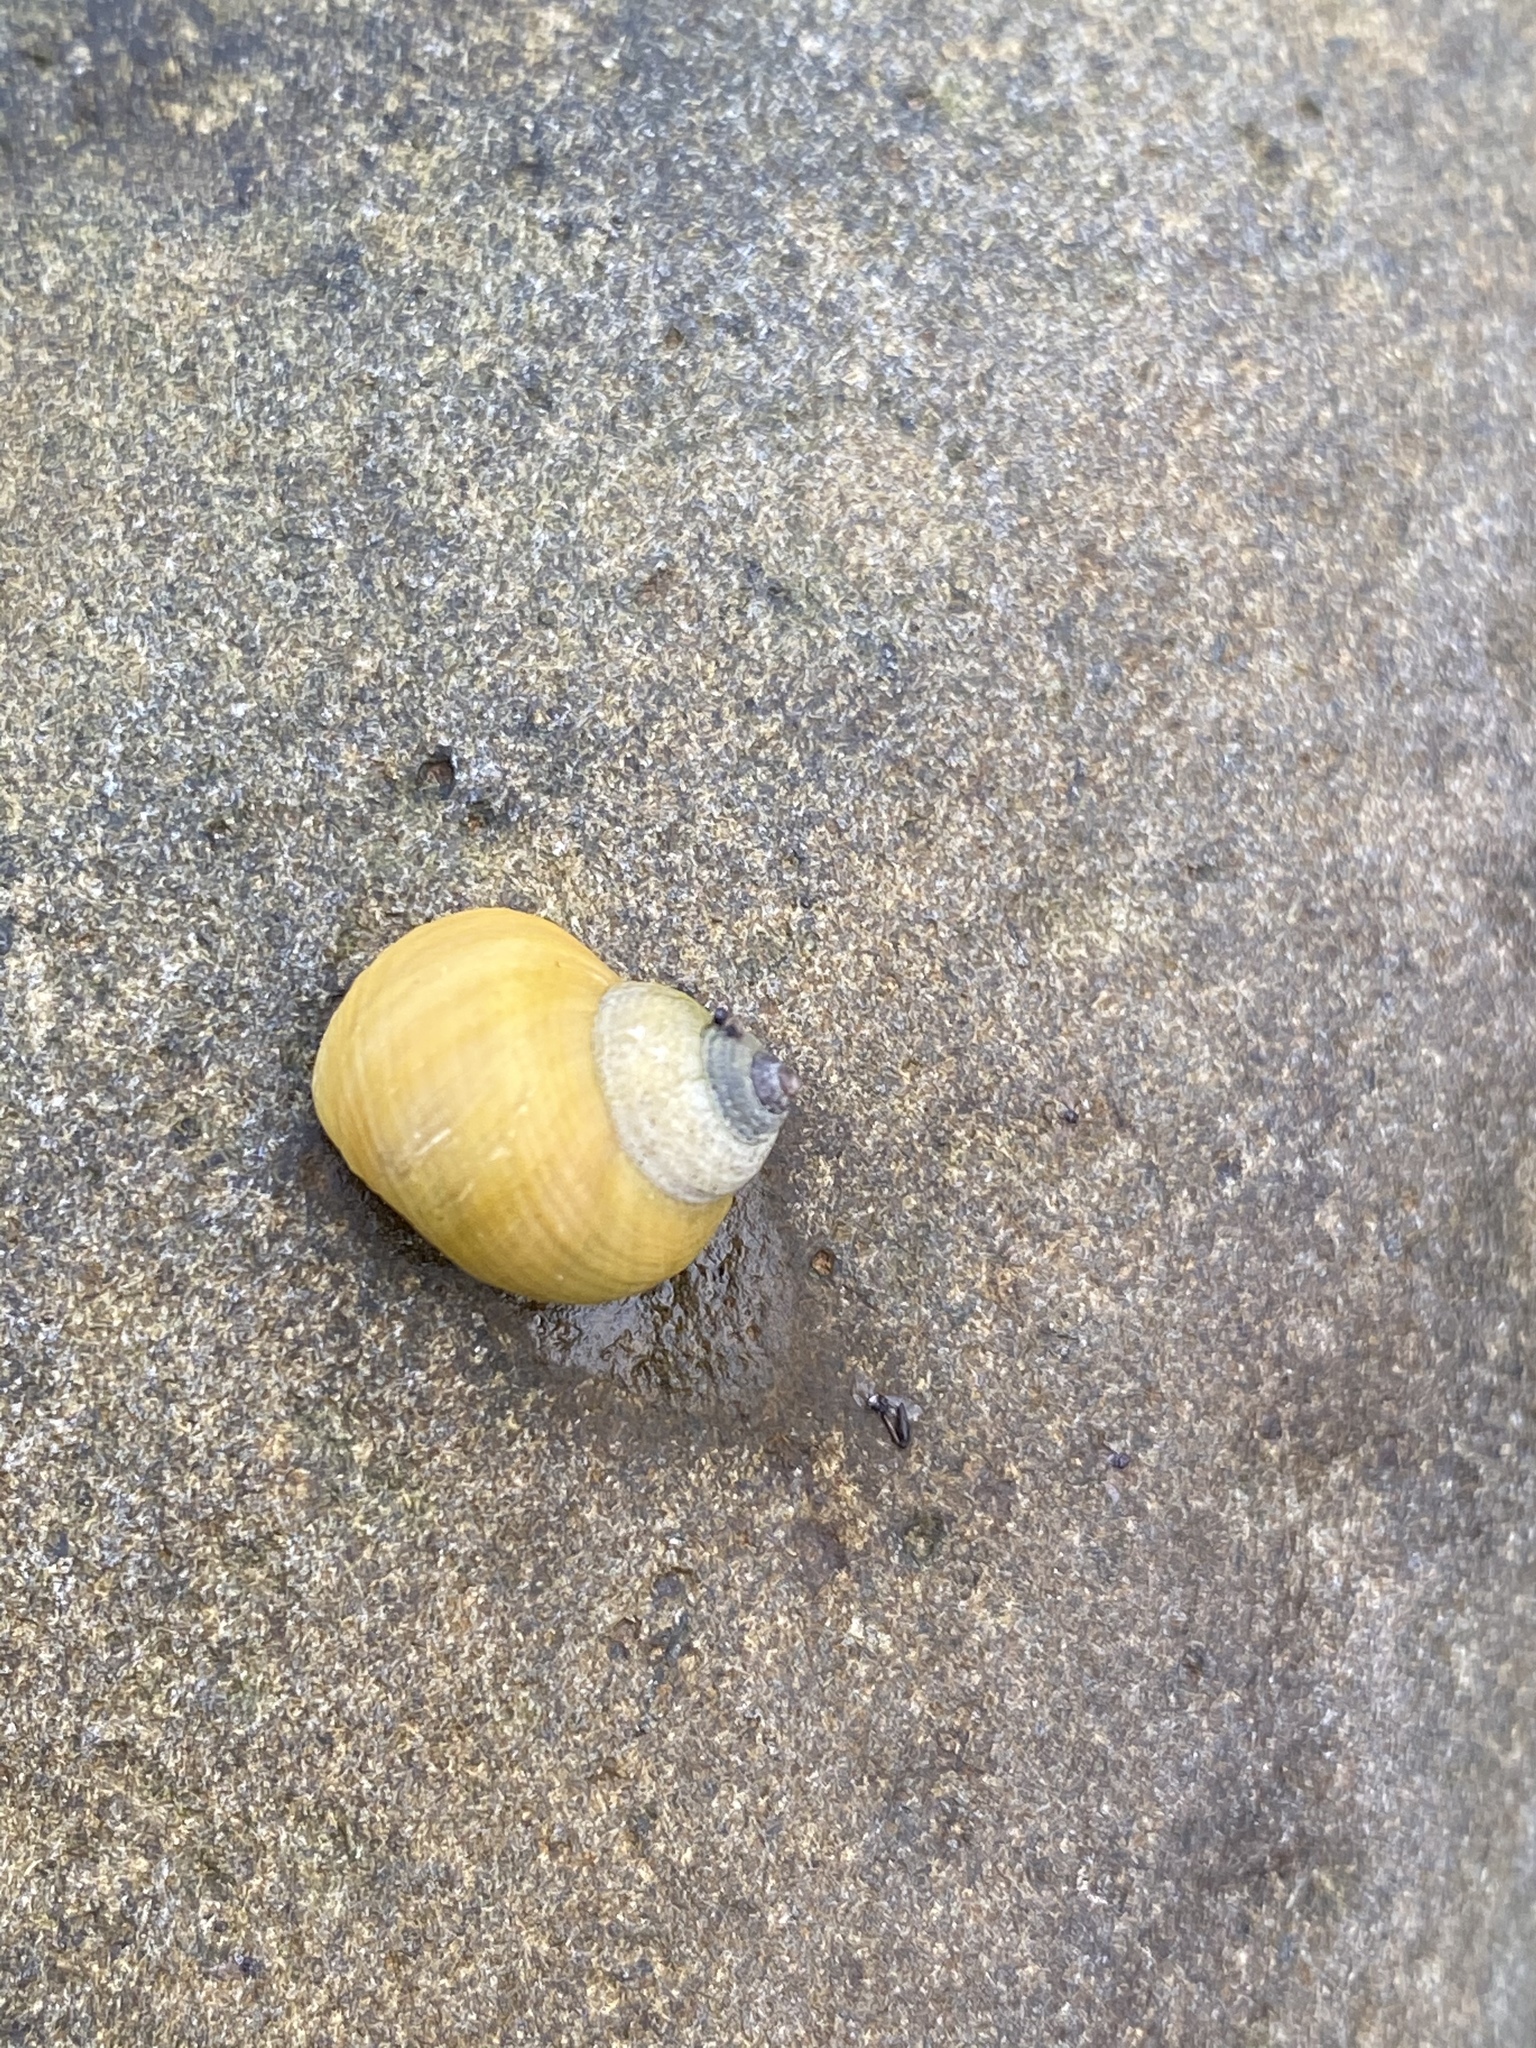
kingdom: Animalia
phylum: Mollusca
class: Gastropoda
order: Littorinimorpha
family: Littorinidae
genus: Littorina
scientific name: Littorina saxatilis
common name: Black-lined periwinkle
